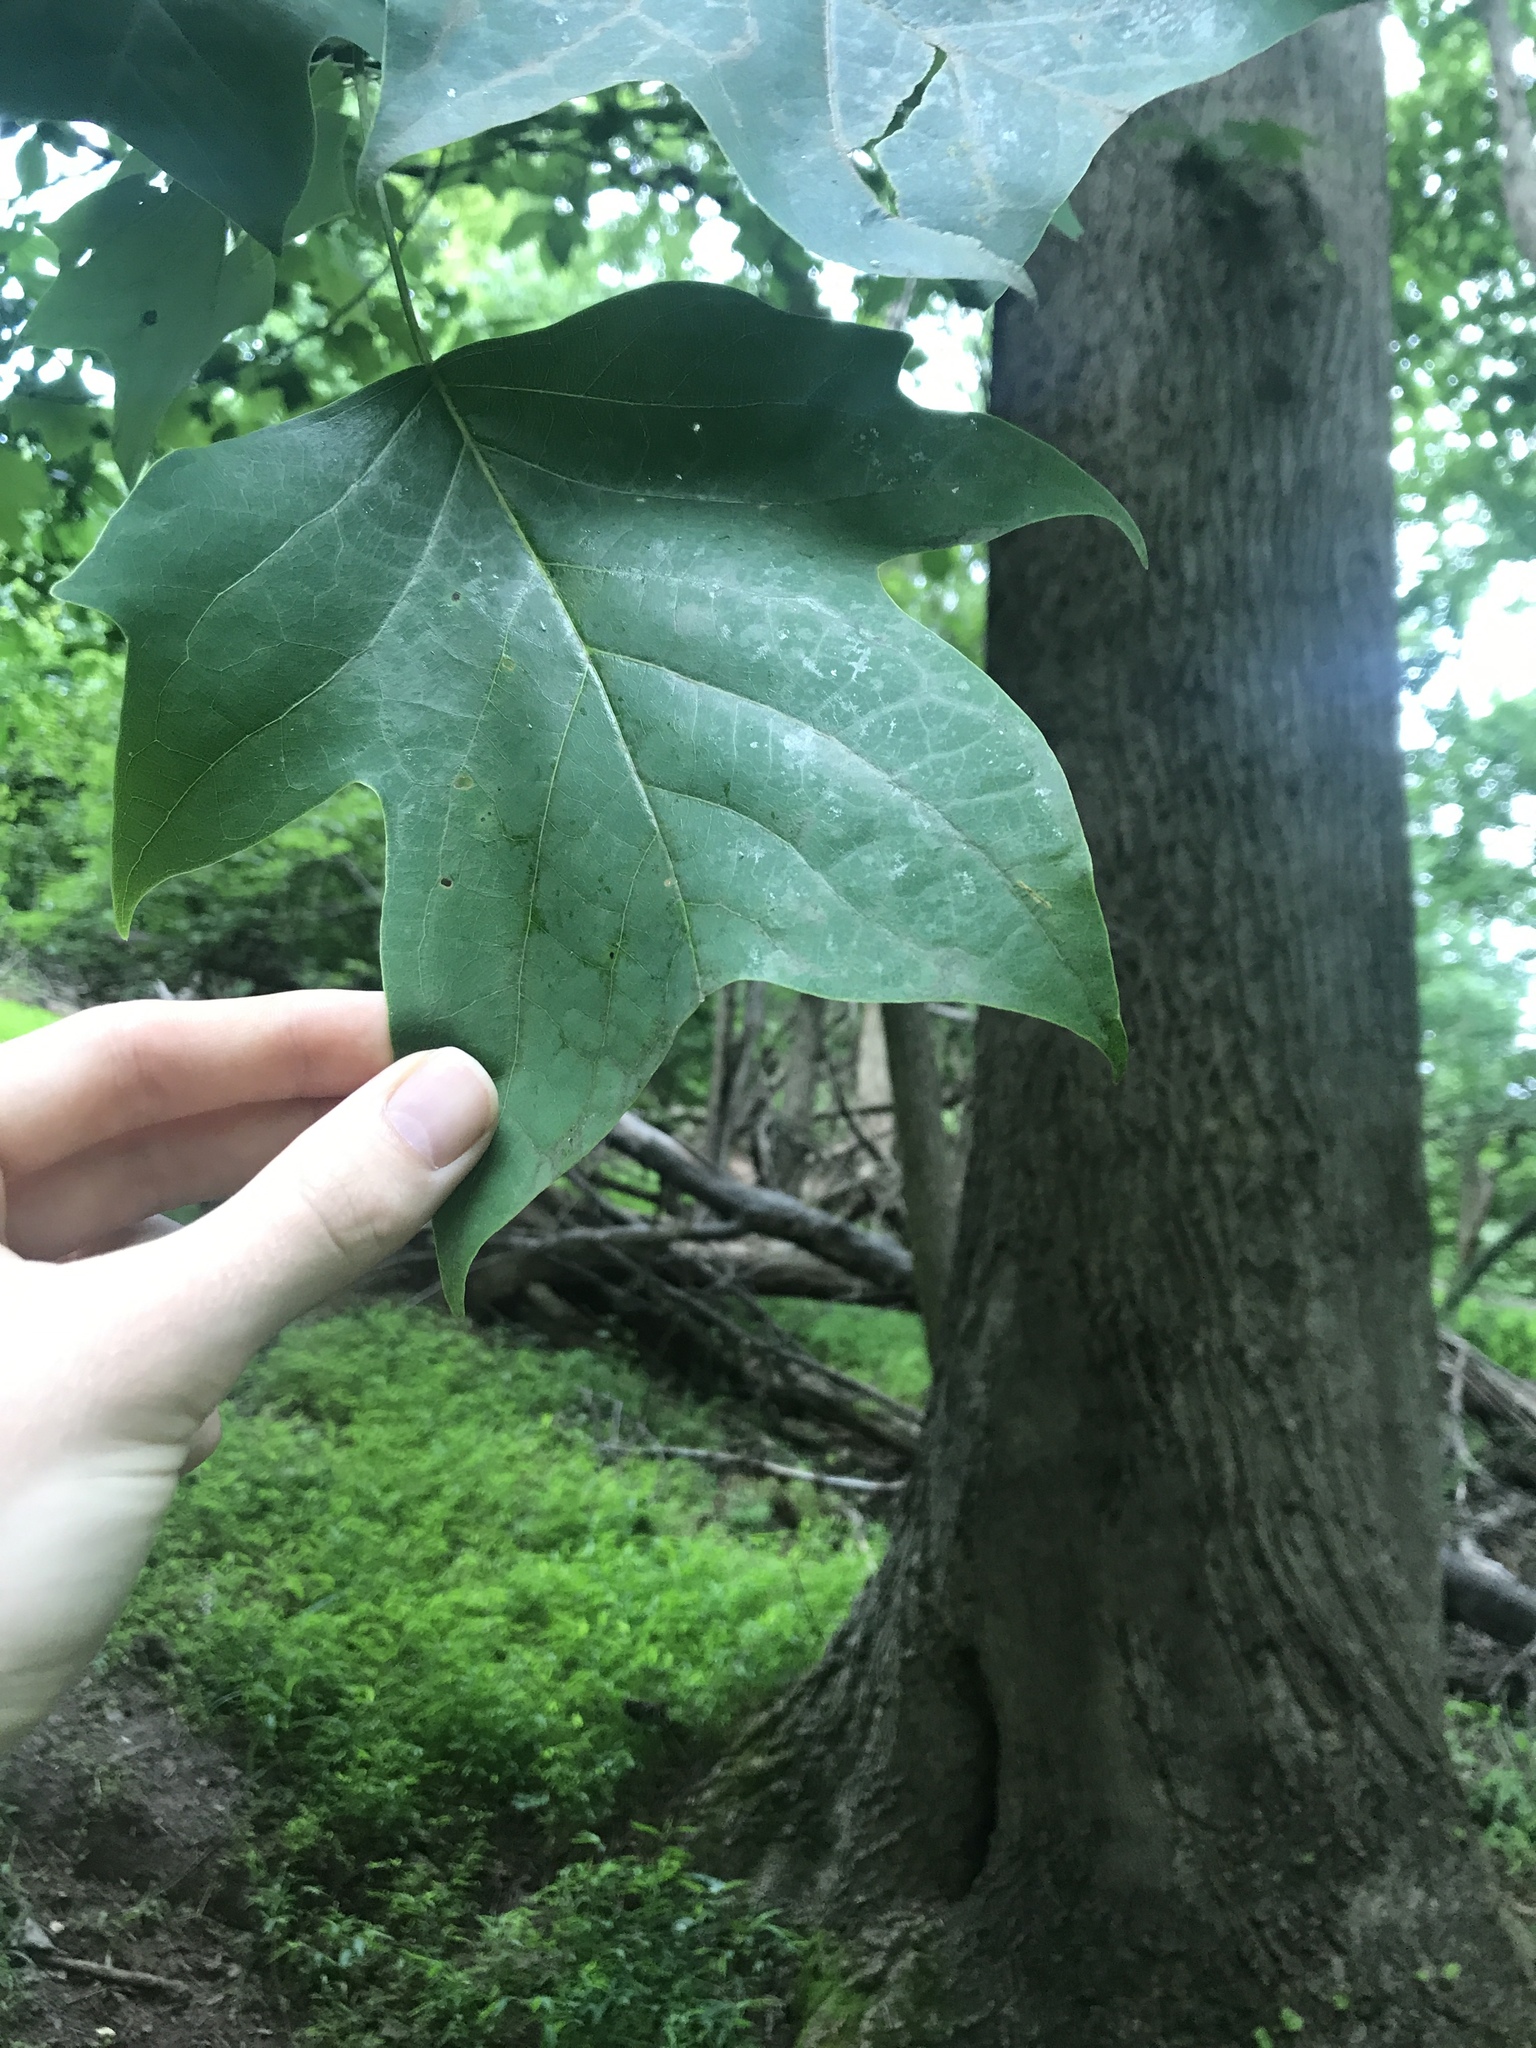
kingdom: Plantae
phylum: Tracheophyta
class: Magnoliopsida
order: Magnoliales
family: Magnoliaceae
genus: Liriodendron
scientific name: Liriodendron tulipifera
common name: Tulip tree
